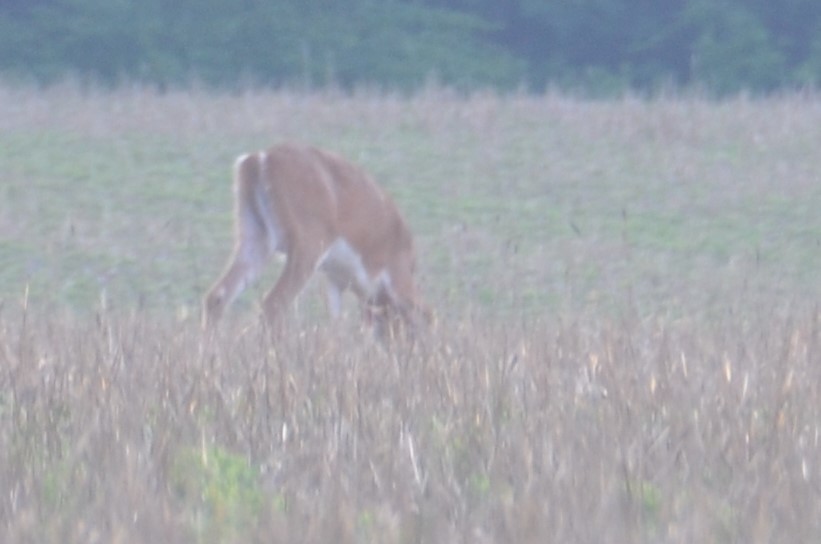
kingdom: Animalia
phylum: Chordata
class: Mammalia
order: Artiodactyla
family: Cervidae
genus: Odocoileus
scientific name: Odocoileus virginianus
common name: White-tailed deer
